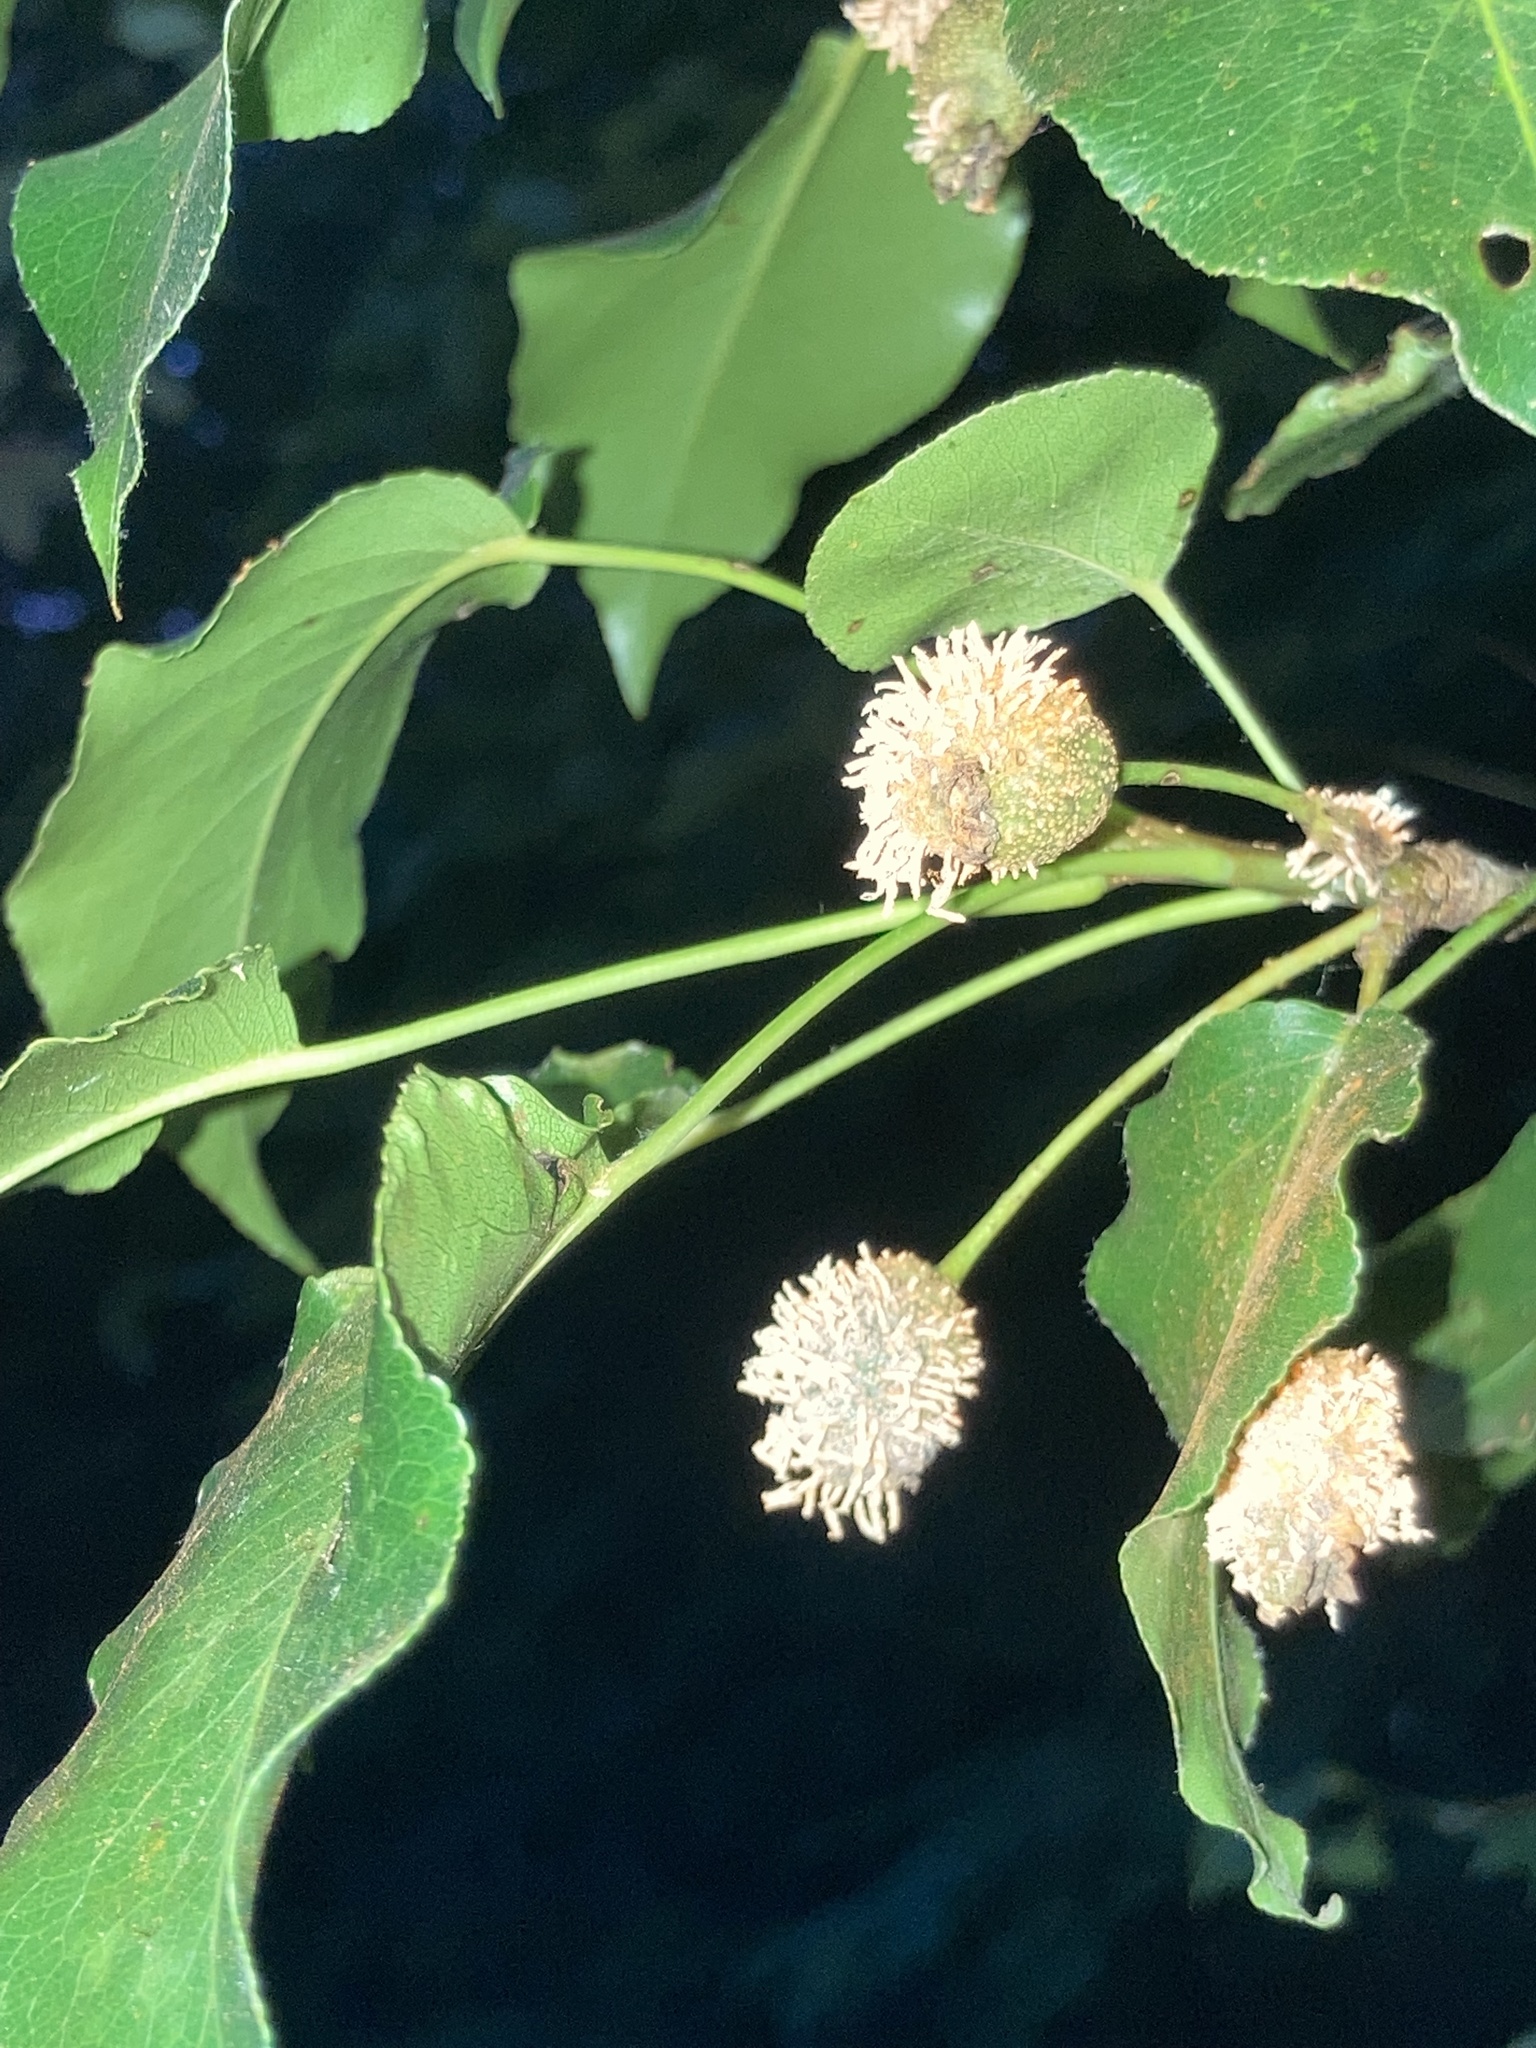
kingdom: Fungi
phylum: Basidiomycota
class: Pucciniomycetes
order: Pucciniales
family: Gymnosporangiaceae
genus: Gymnosporangium
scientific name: Gymnosporangium clavipes
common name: Quince rust
